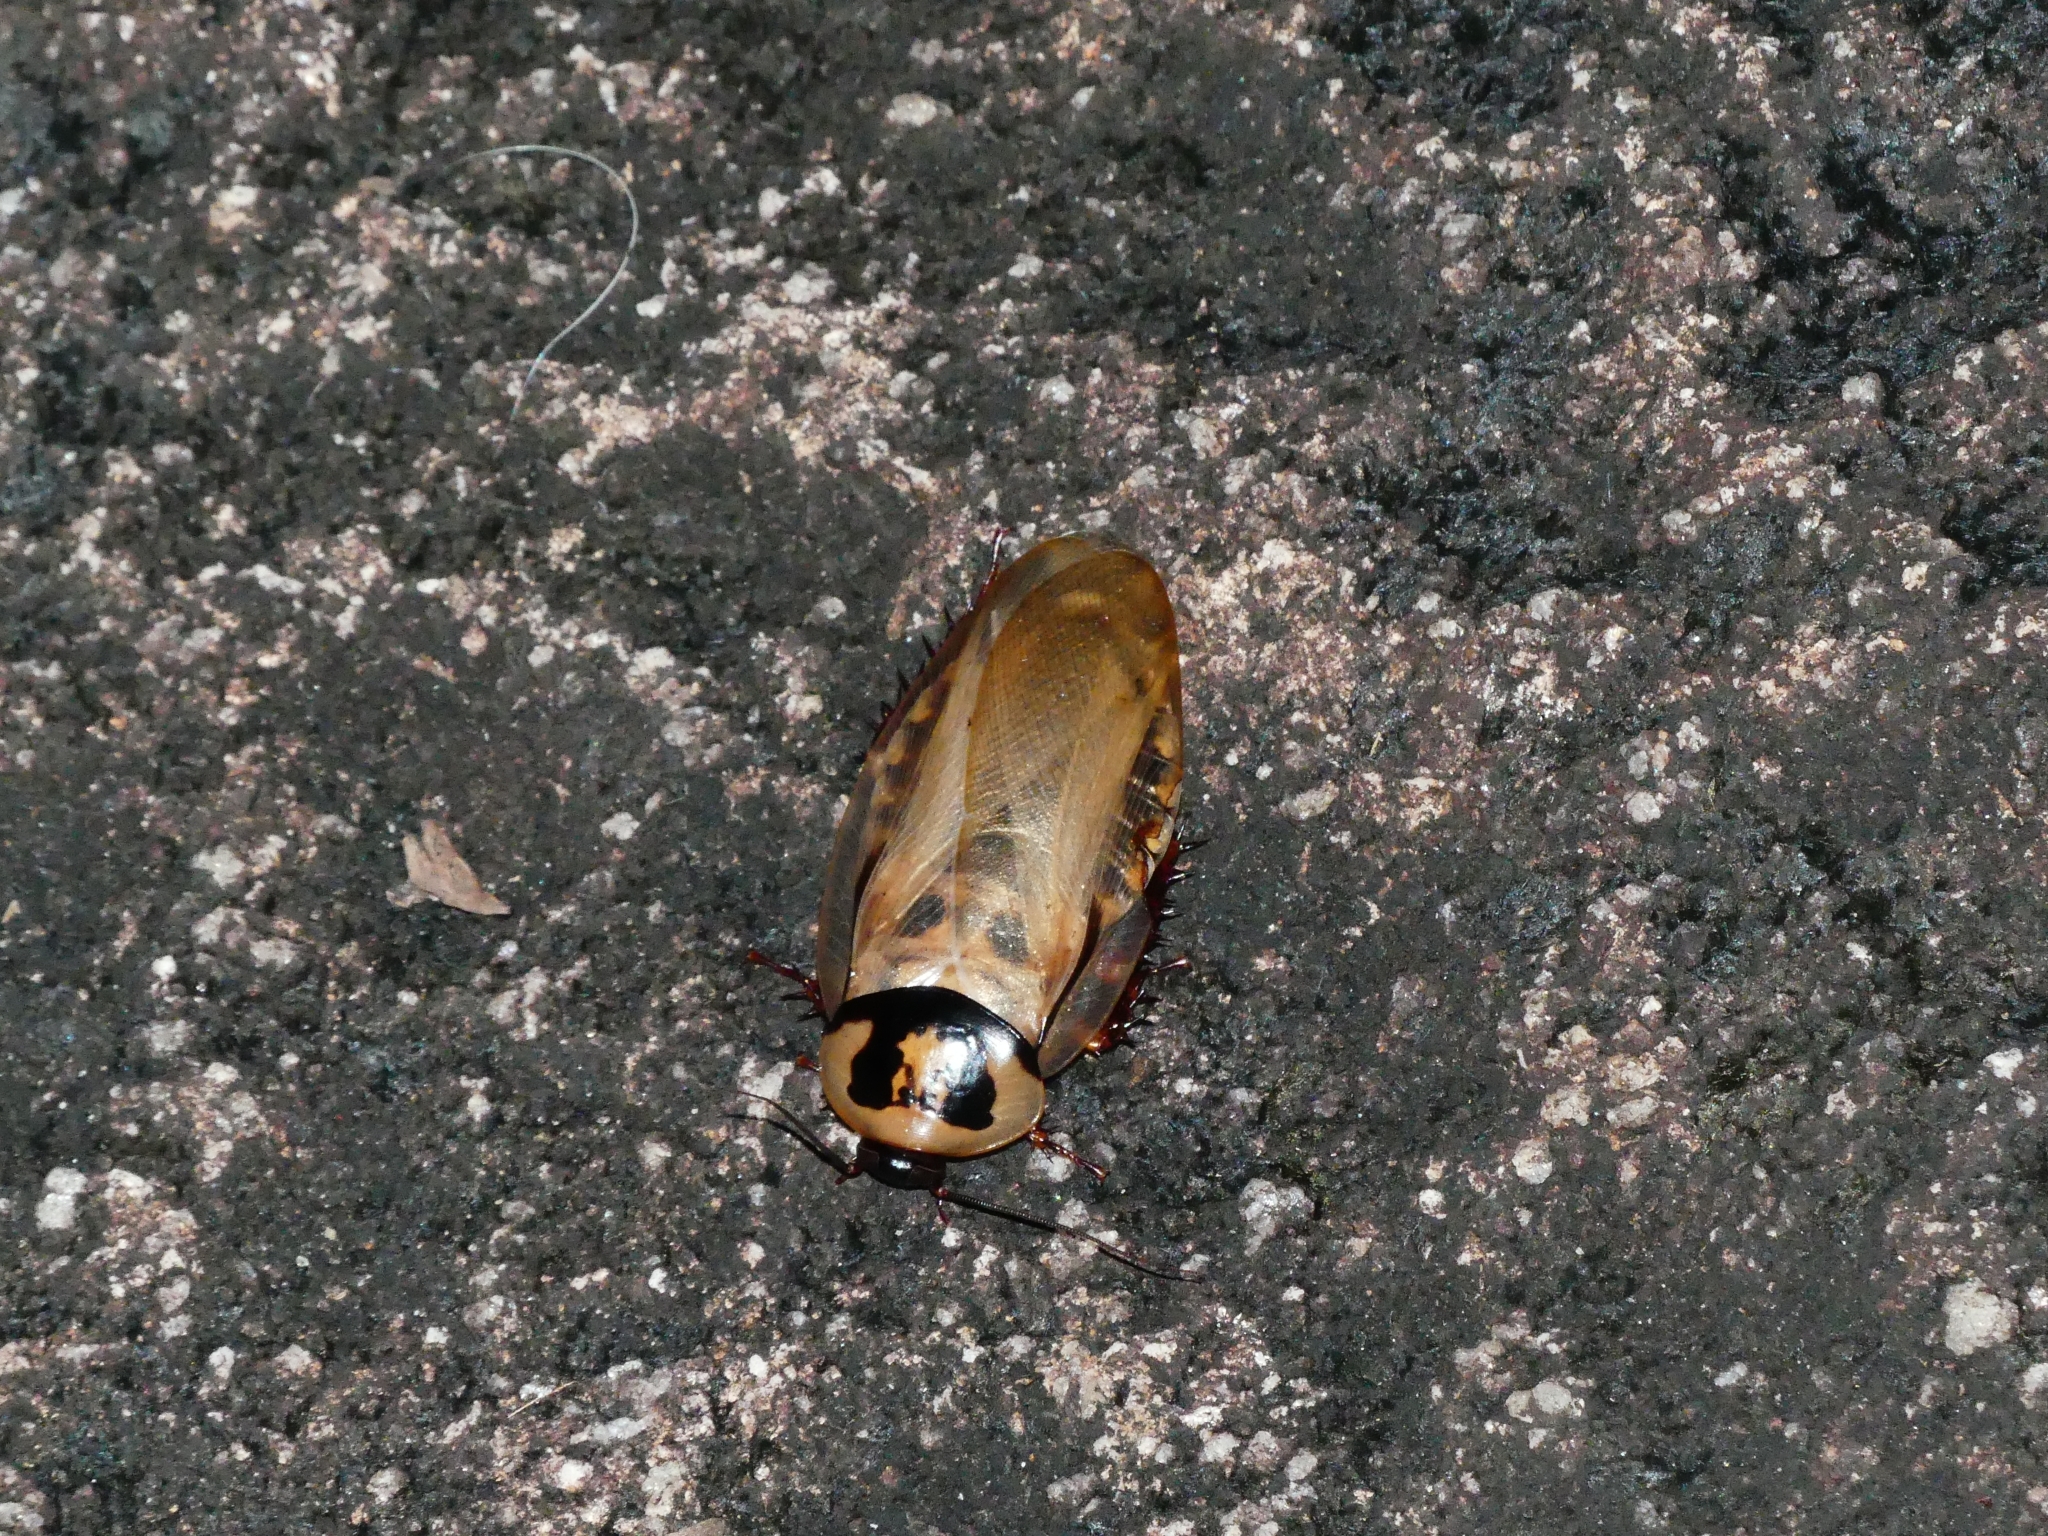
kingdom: Animalia
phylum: Arthropoda
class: Insecta
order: Blattodea
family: Blaberidae
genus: Eublaberus
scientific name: Eublaberus distanti
